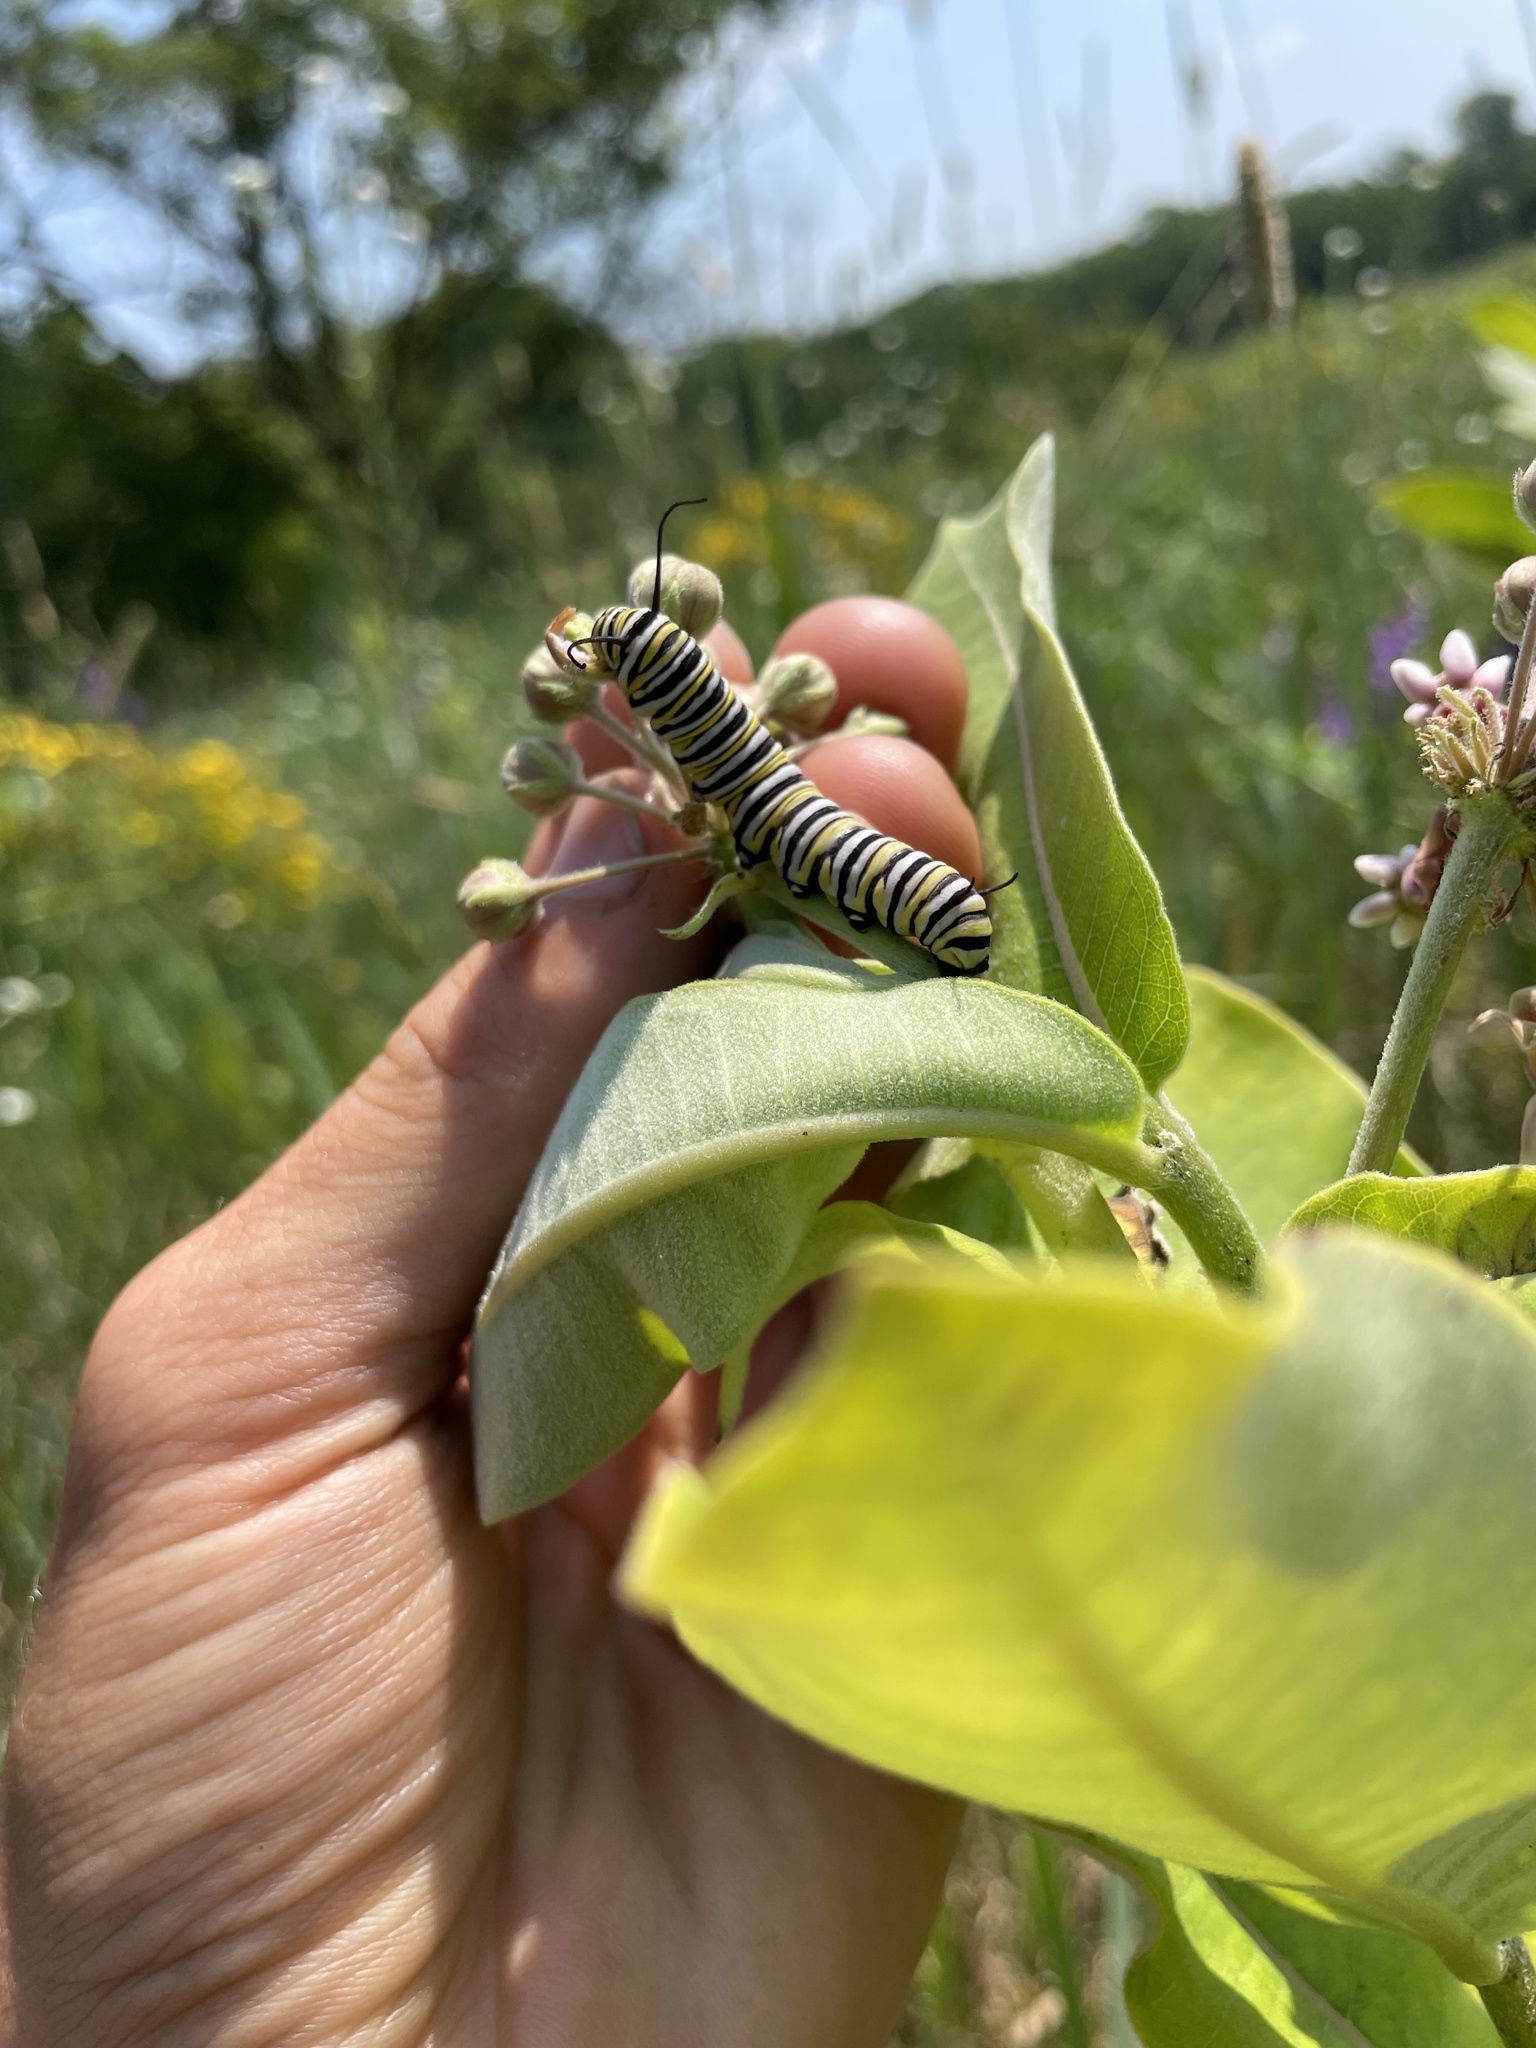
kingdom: Animalia
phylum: Arthropoda
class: Insecta
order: Lepidoptera
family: Nymphalidae
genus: Danaus
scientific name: Danaus plexippus
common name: Monarch
